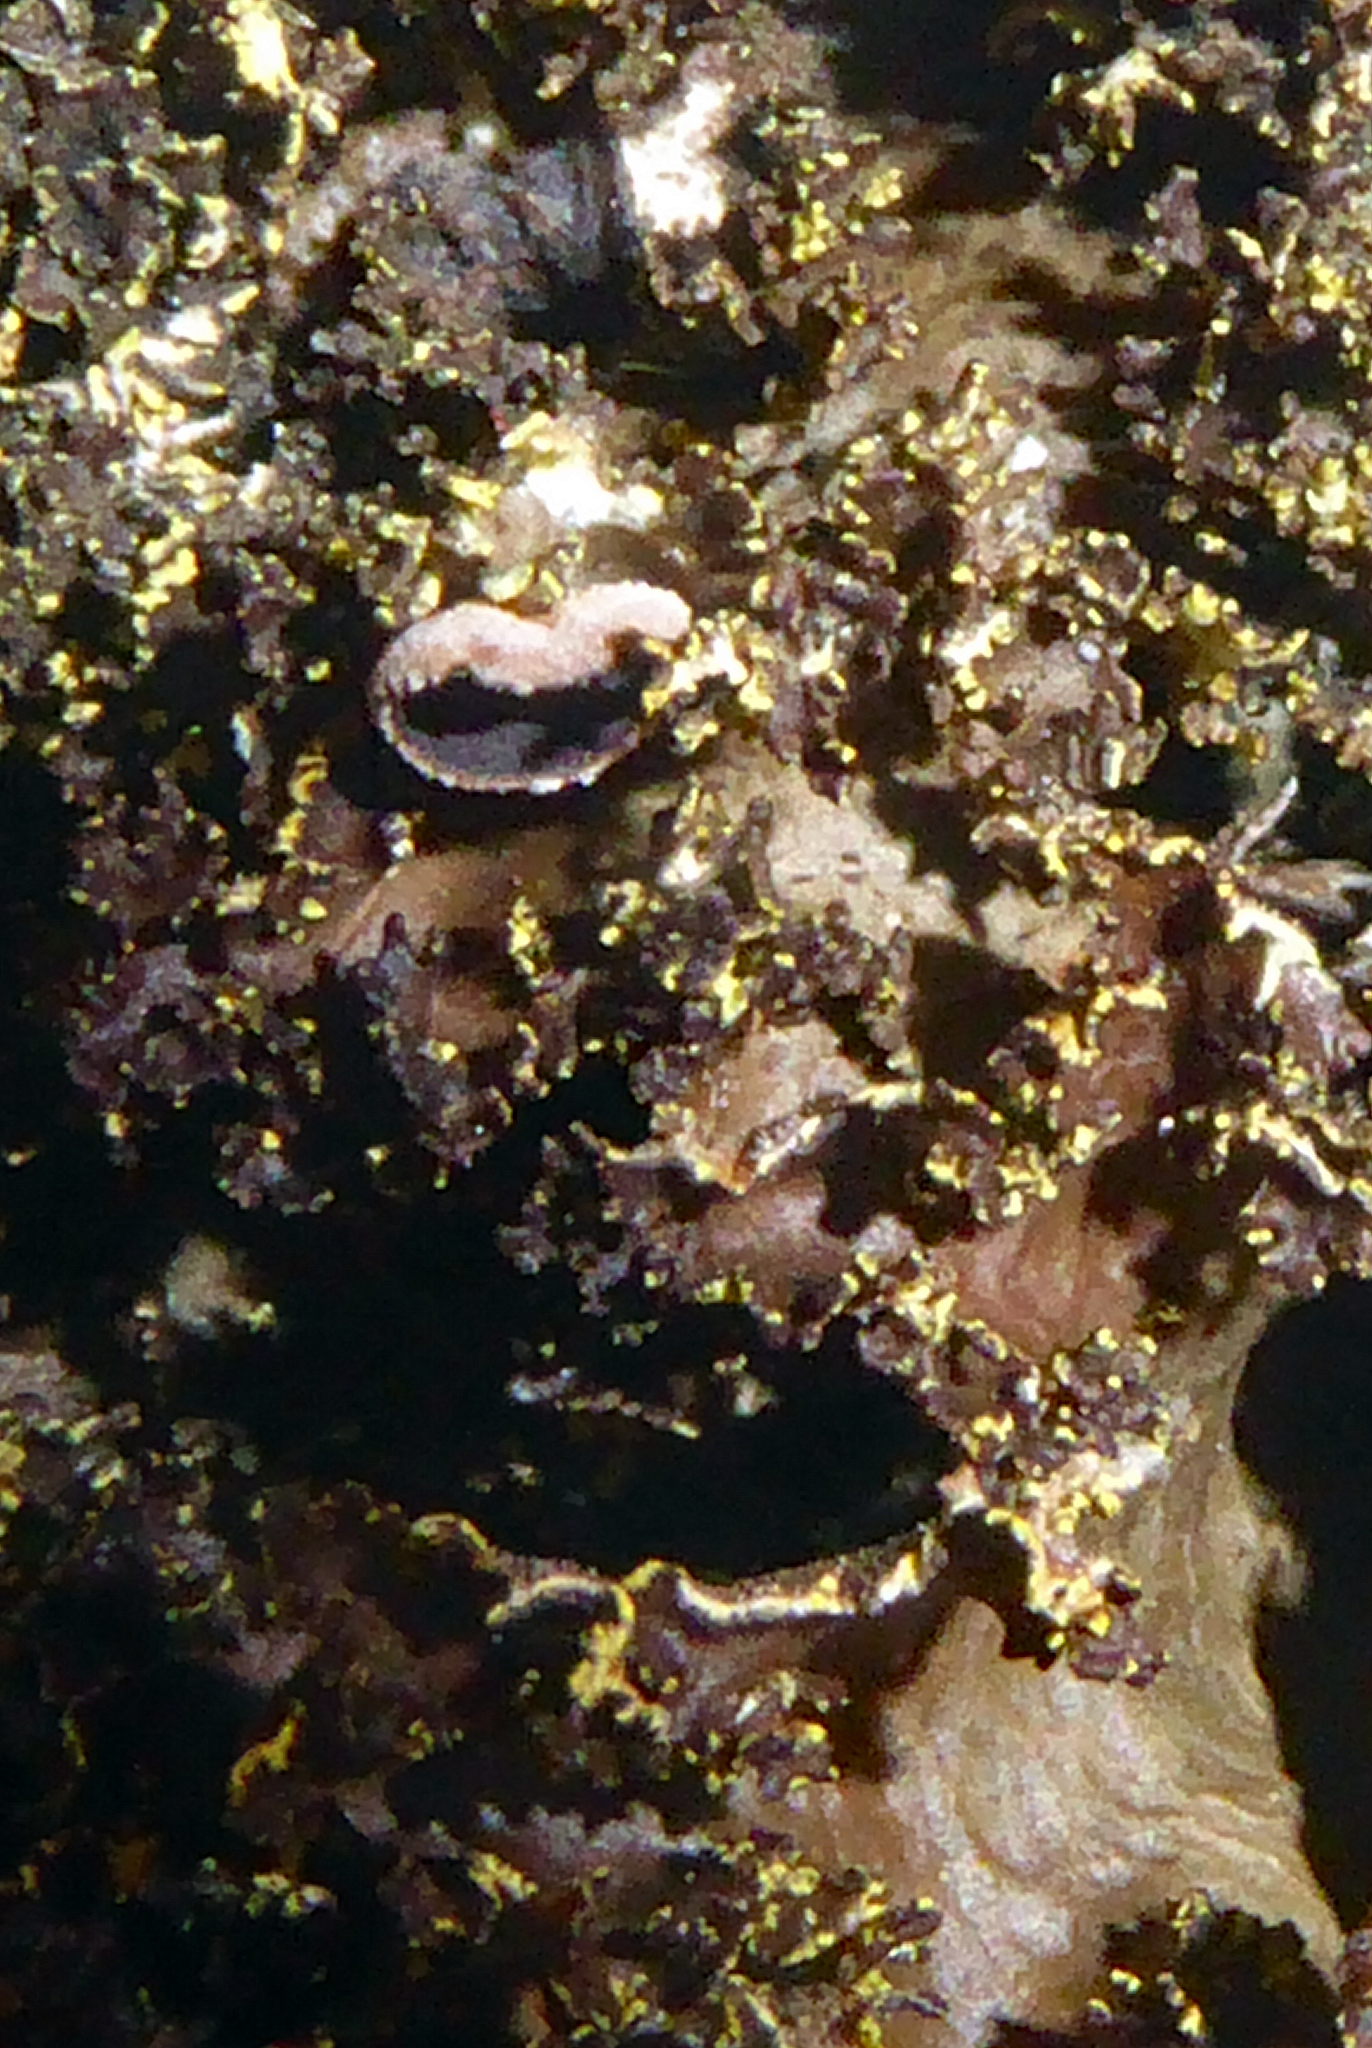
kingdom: Fungi
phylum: Ascomycota
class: Lecanoromycetes
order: Peltigerales
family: Lobariaceae
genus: Pseudocyphellaria
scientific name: Pseudocyphellaria neglecta
